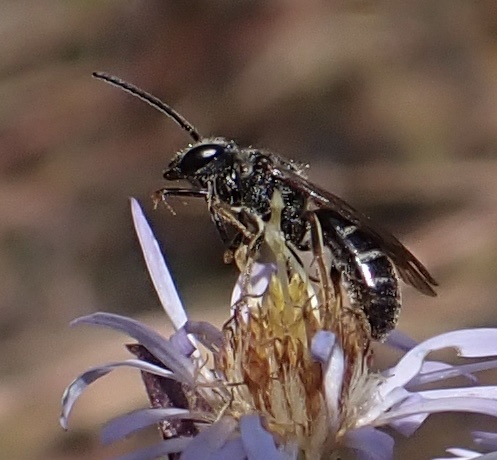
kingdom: Animalia
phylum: Arthropoda
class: Insecta
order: Hymenoptera
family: Halictidae
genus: Lasioglossum
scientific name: Lasioglossum fuscipenne
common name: Brown-winged sweat bee
